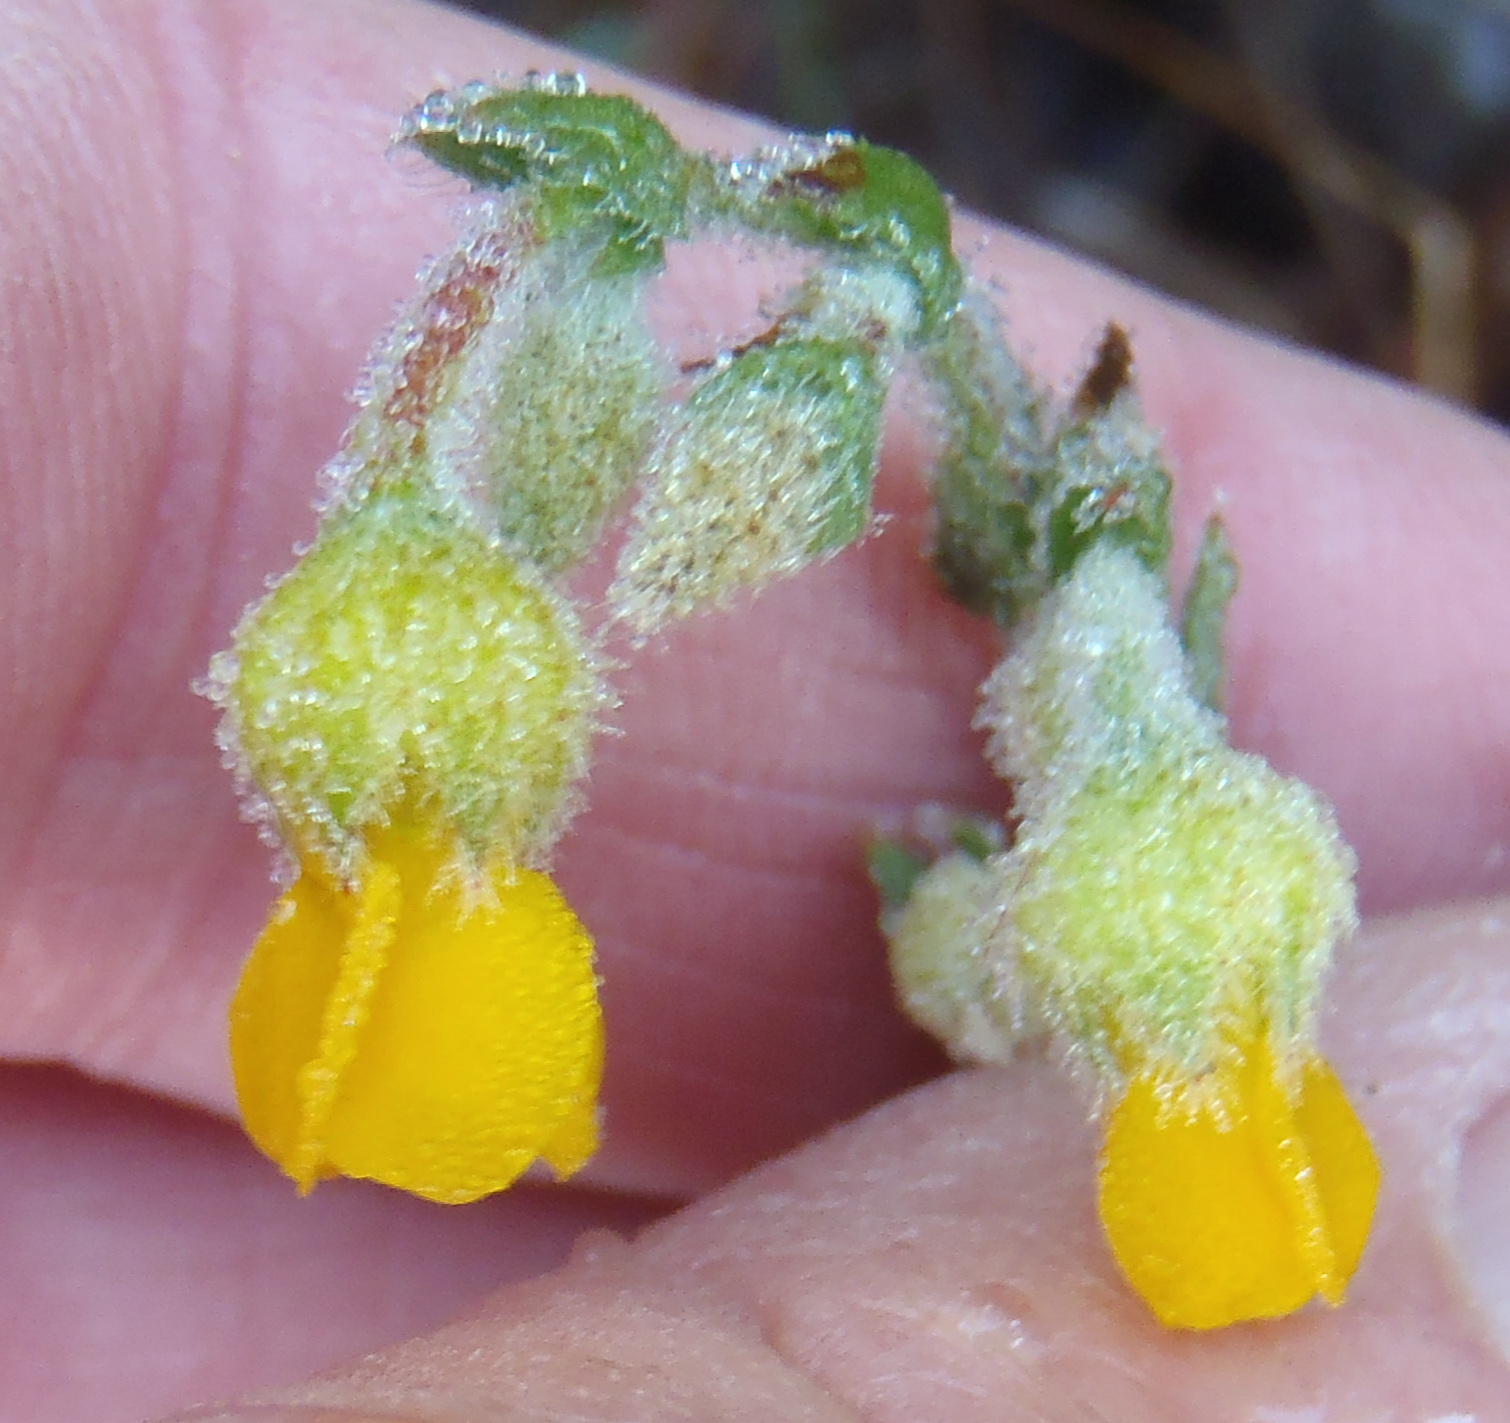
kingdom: Plantae
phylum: Tracheophyta
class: Magnoliopsida
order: Malvales
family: Malvaceae
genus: Hermannia
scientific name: Hermannia stipulacea
